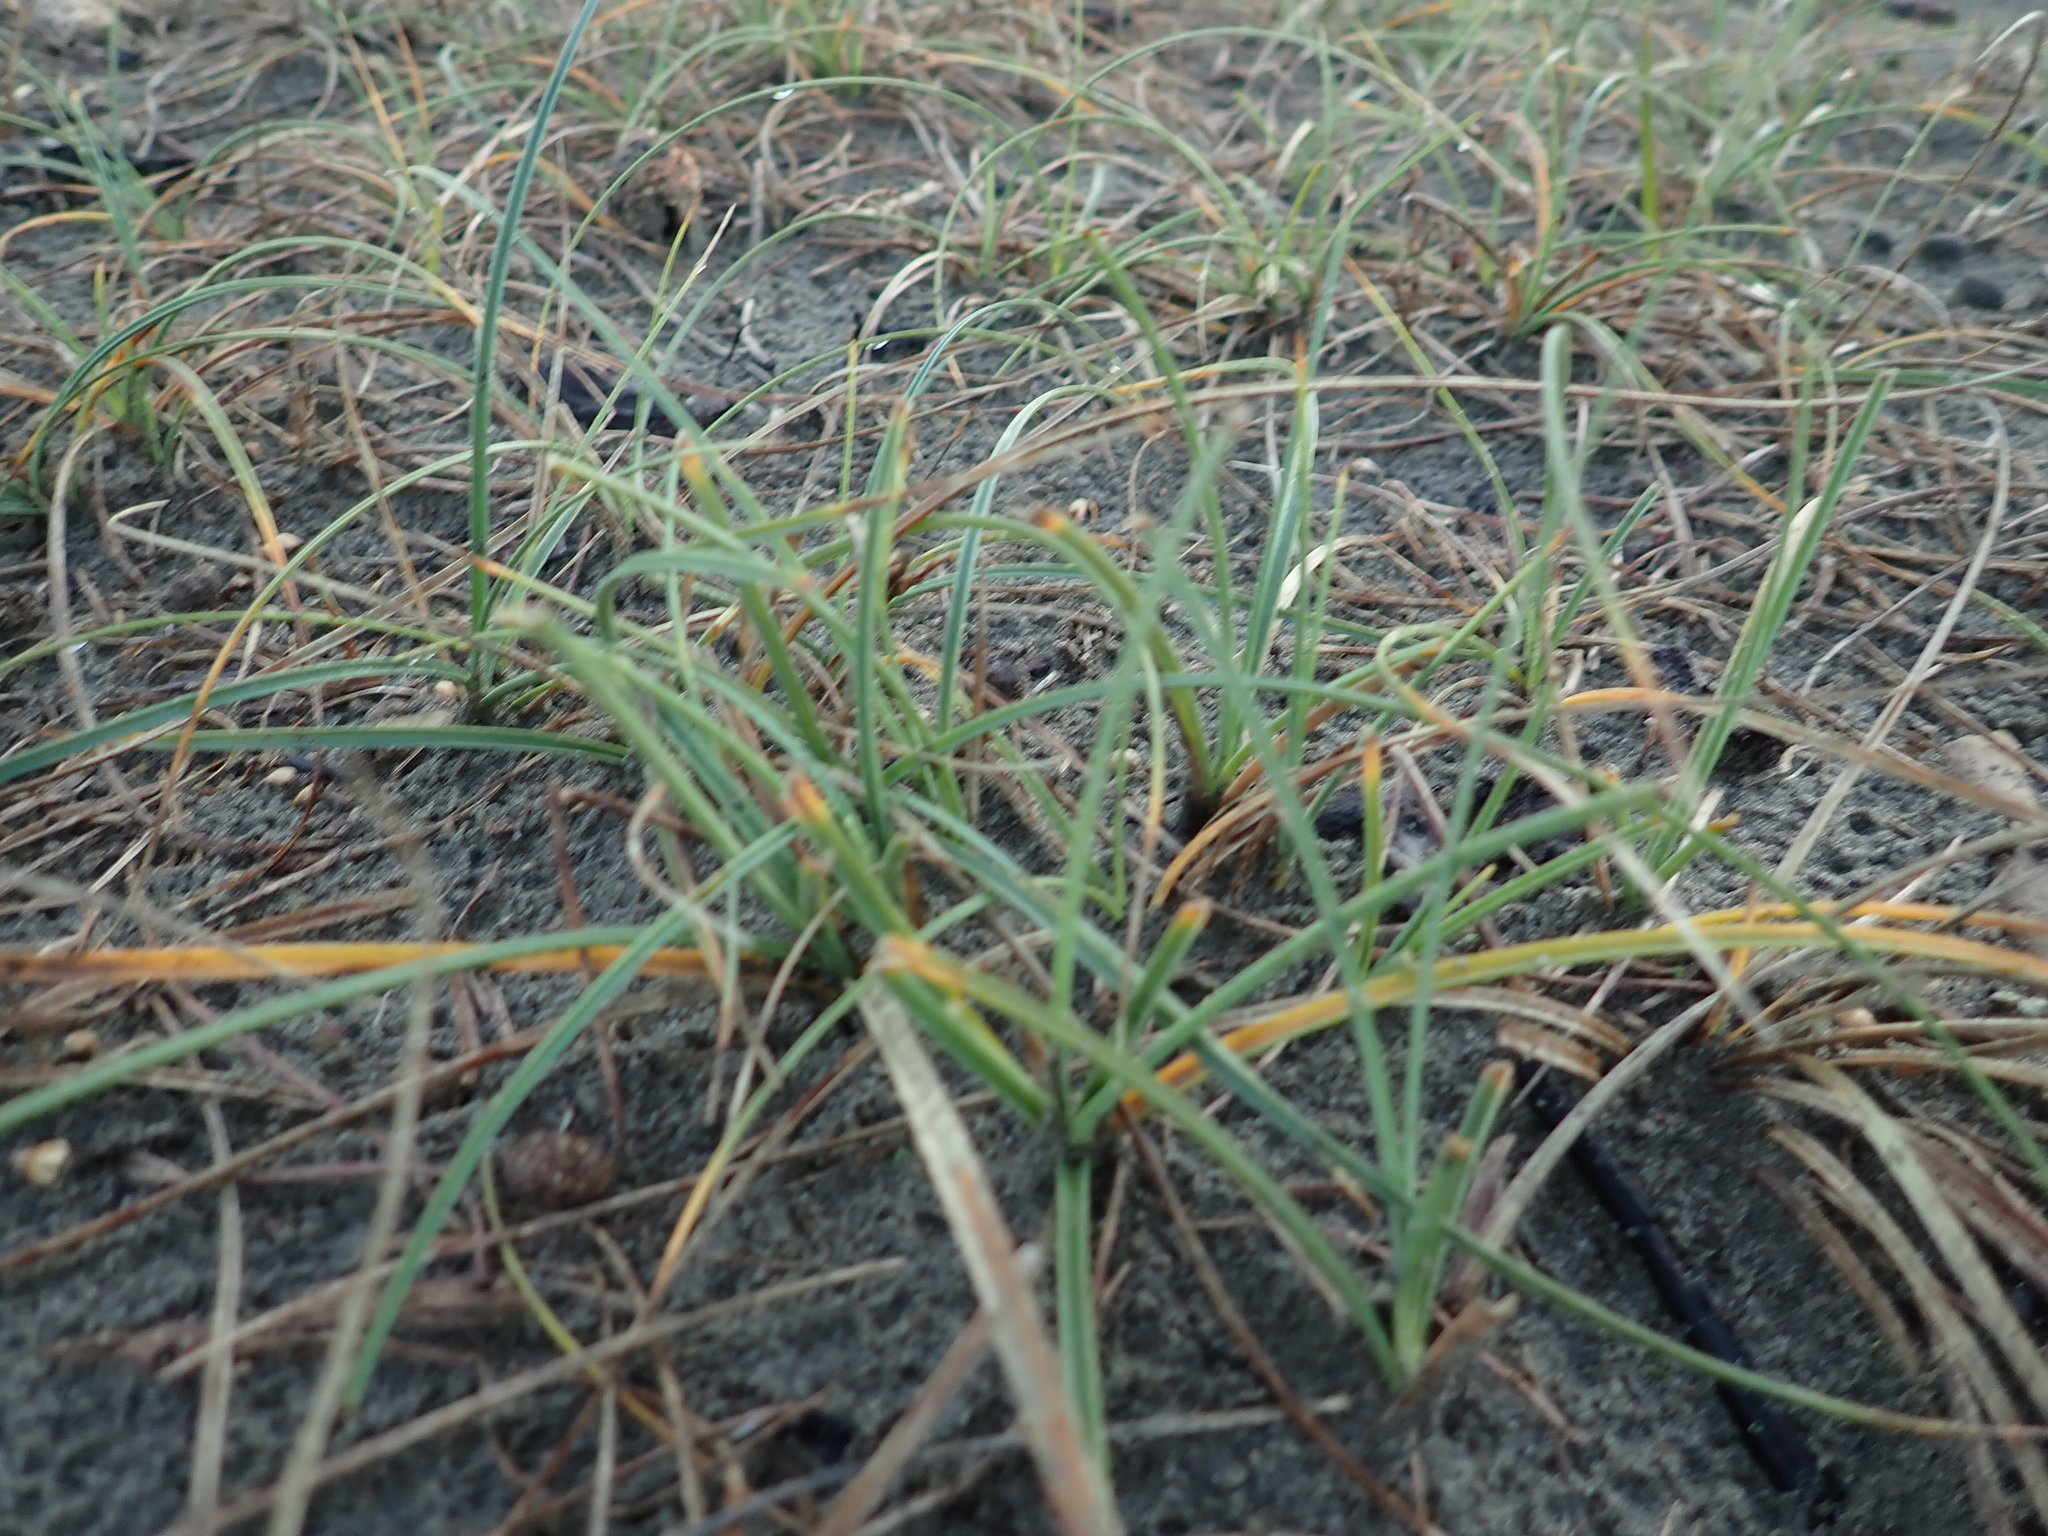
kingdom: Plantae
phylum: Tracheophyta
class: Liliopsida
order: Poales
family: Cyperaceae
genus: Carex
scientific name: Carex pumila
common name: Dwarf sedge
